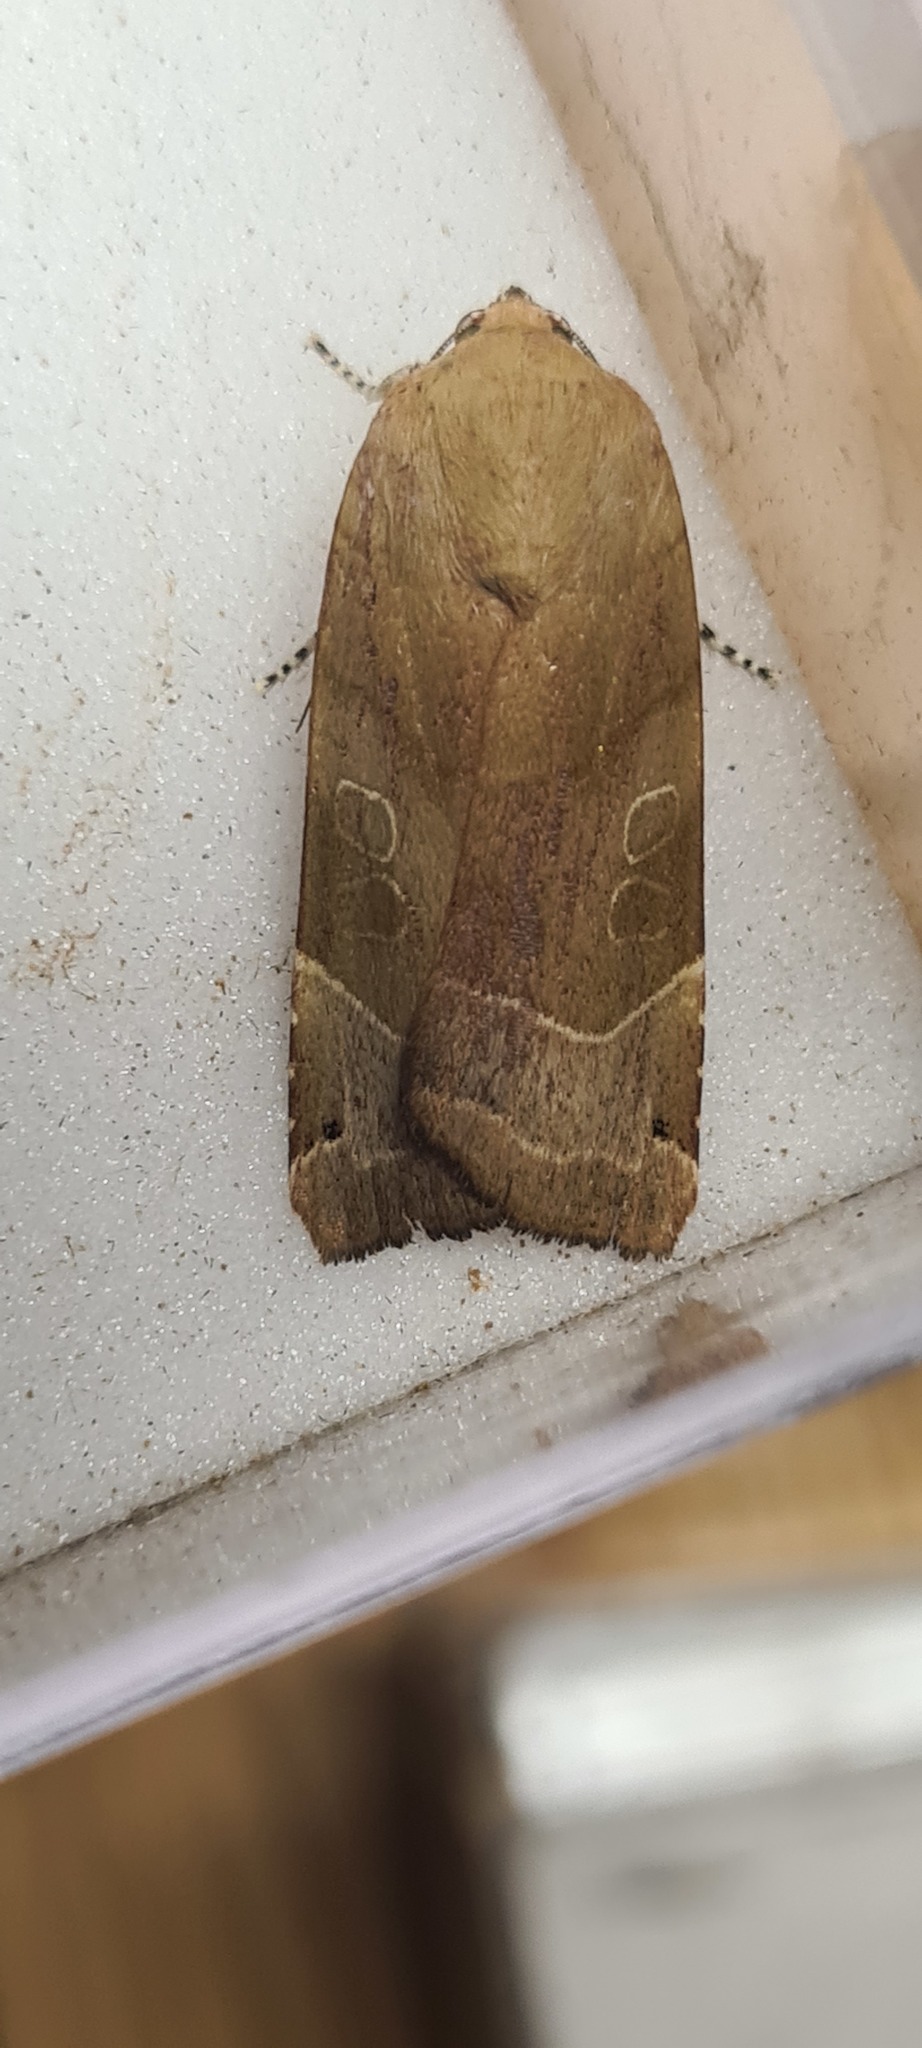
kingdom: Animalia
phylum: Arthropoda
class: Insecta
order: Lepidoptera
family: Noctuidae
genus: Noctua
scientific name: Noctua fimbriata
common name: Broad-bordered yellow underwing
